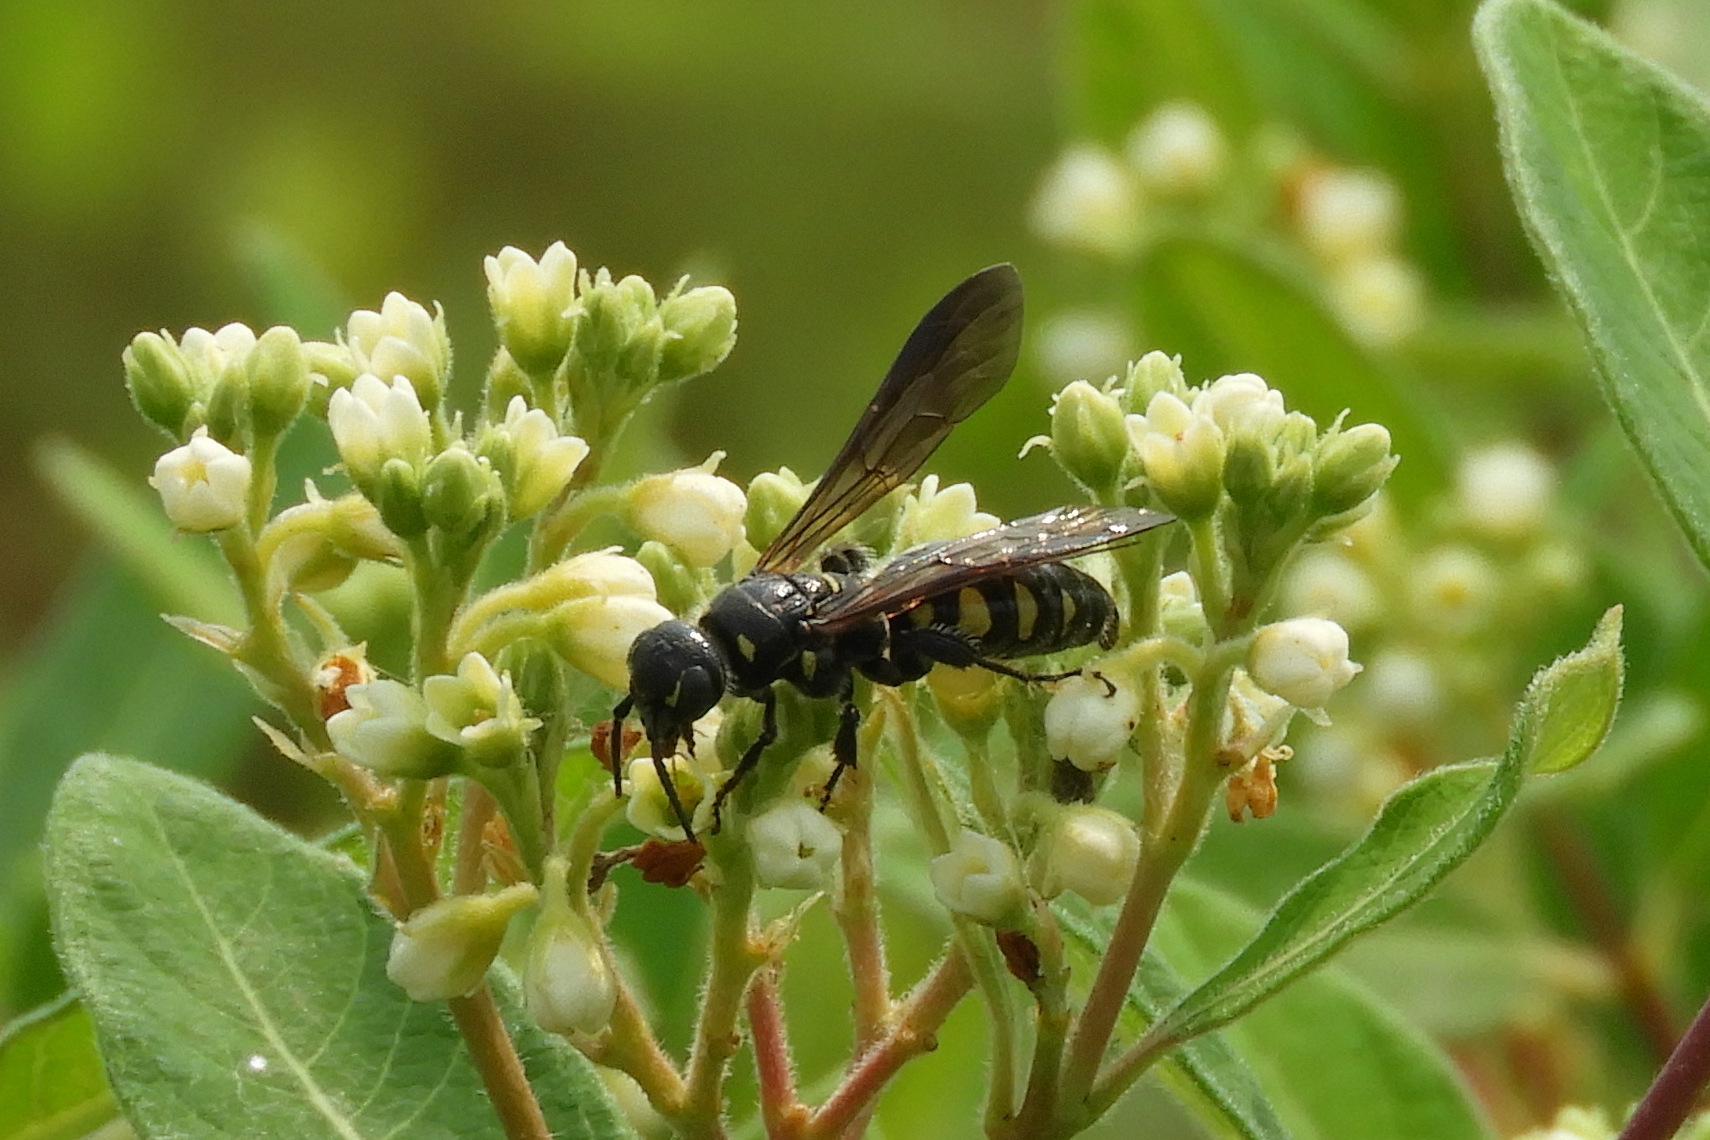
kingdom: Animalia
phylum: Arthropoda
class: Insecta
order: Hymenoptera
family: Tiphiidae
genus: Myzinum
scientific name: Myzinum obscurum
